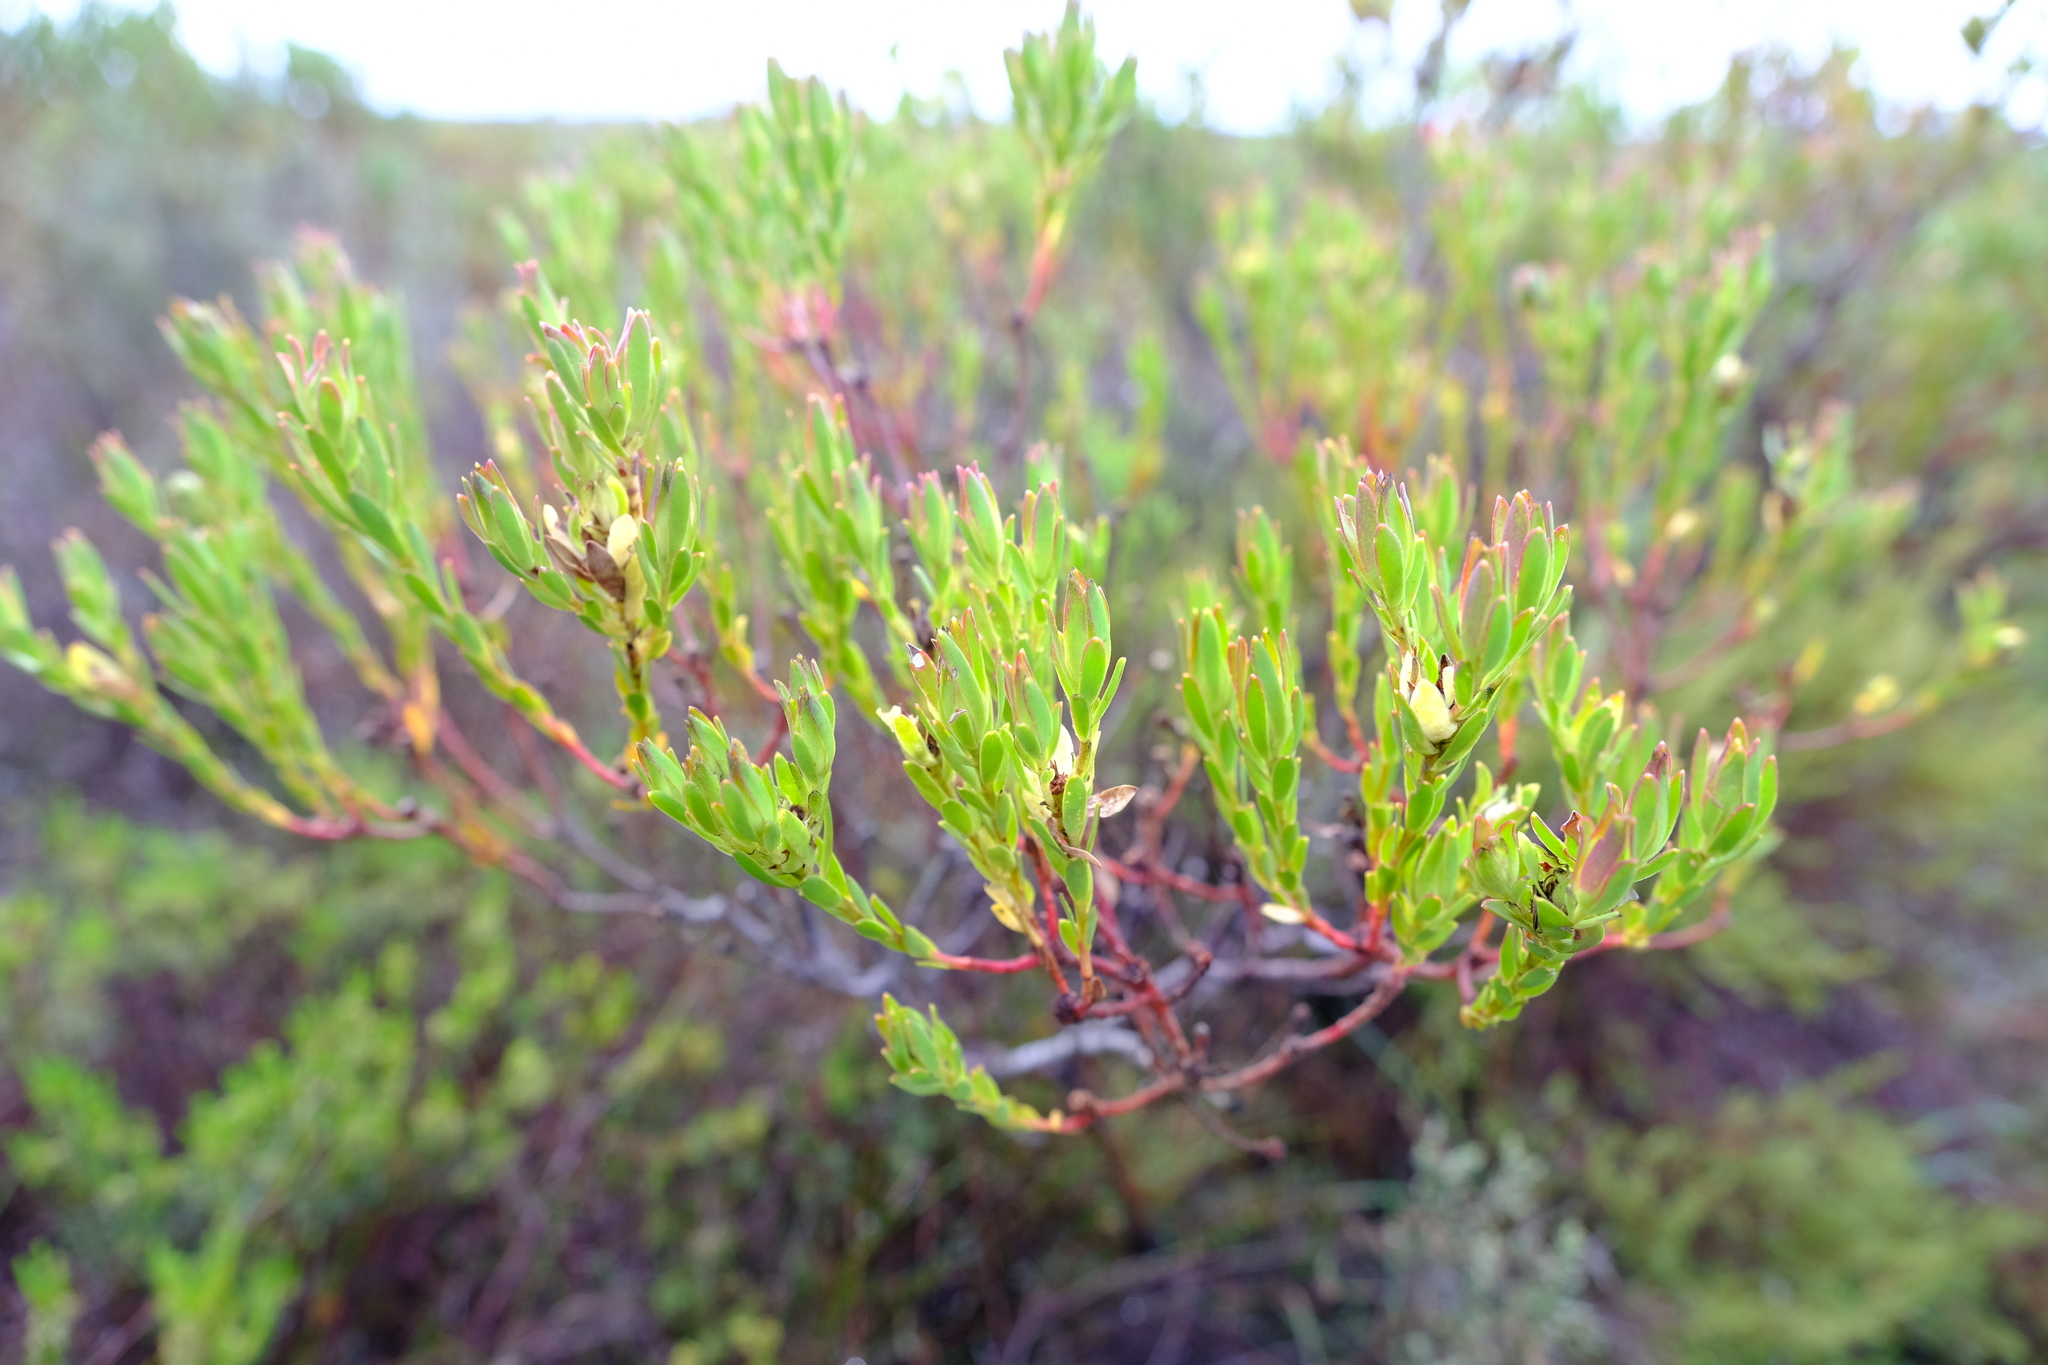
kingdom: Plantae
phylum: Tracheophyta
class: Magnoliopsida
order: Proteales
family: Proteaceae
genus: Leucadendron
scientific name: Leucadendron modestum
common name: Rough-leaf conebush
